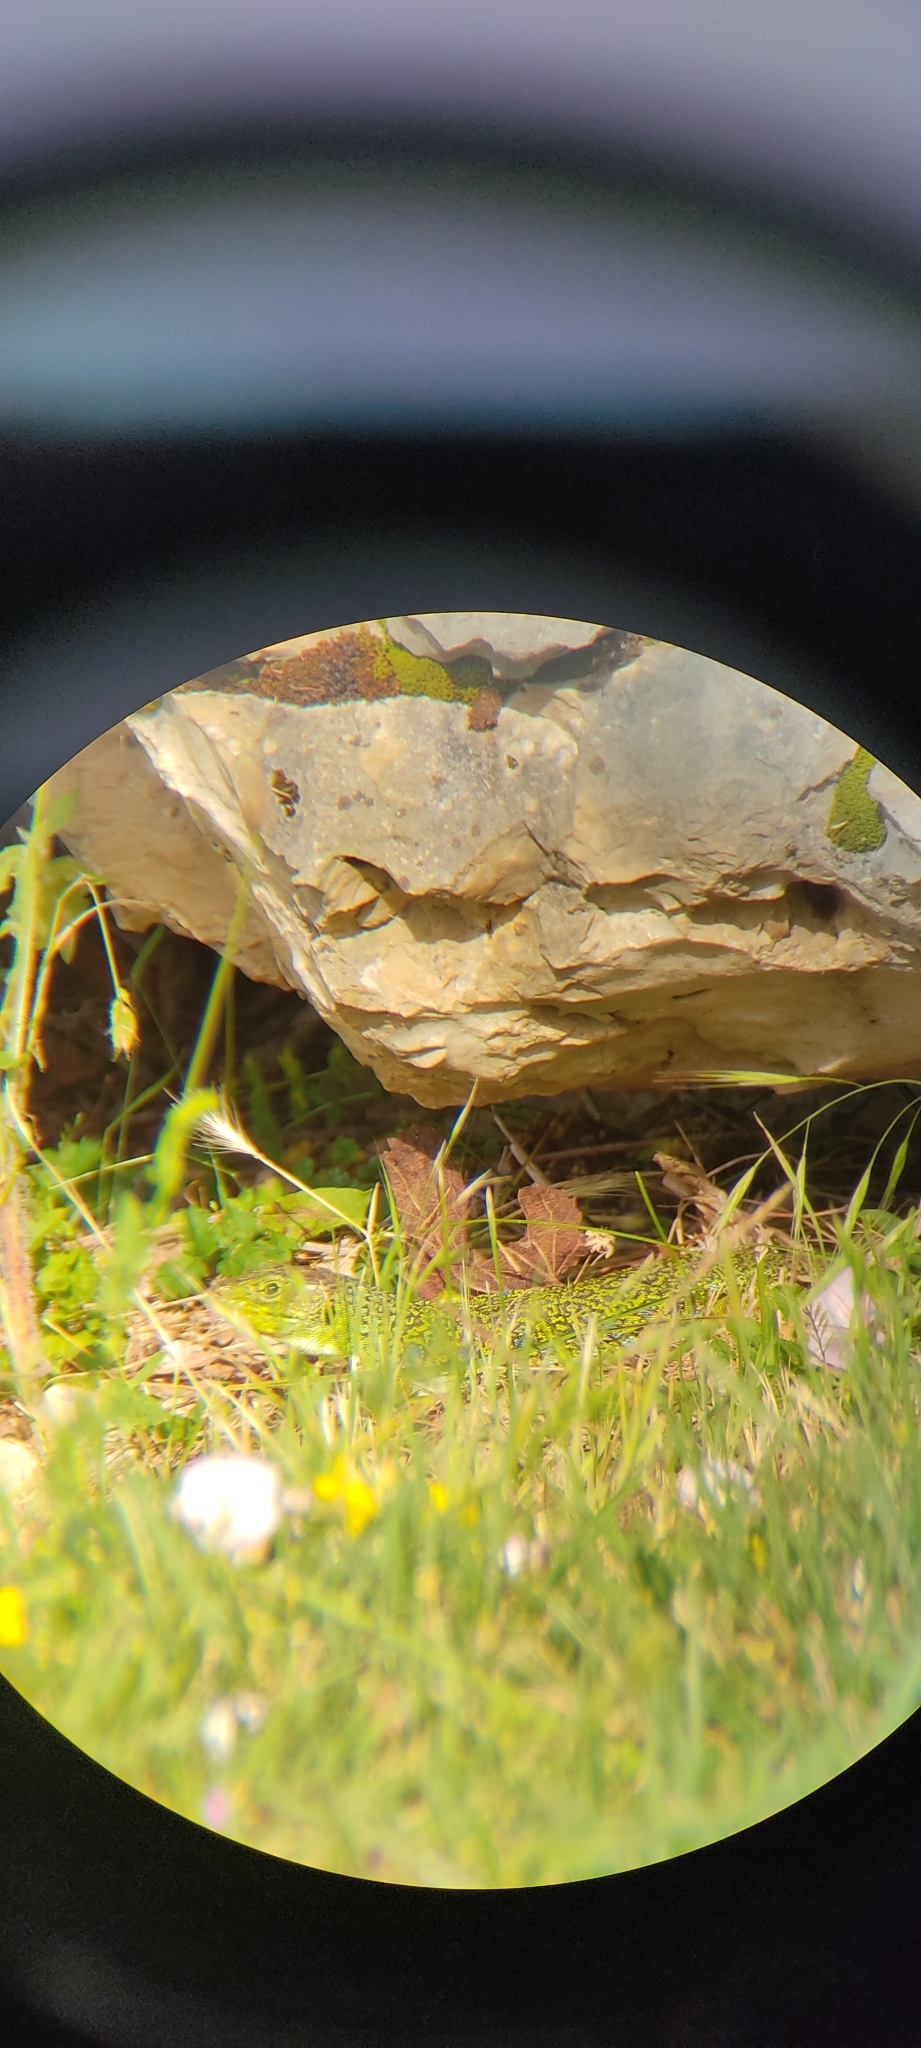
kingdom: Animalia
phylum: Chordata
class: Squamata
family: Lacertidae
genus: Timon
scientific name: Timon lepidus
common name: Ocellated lizard
